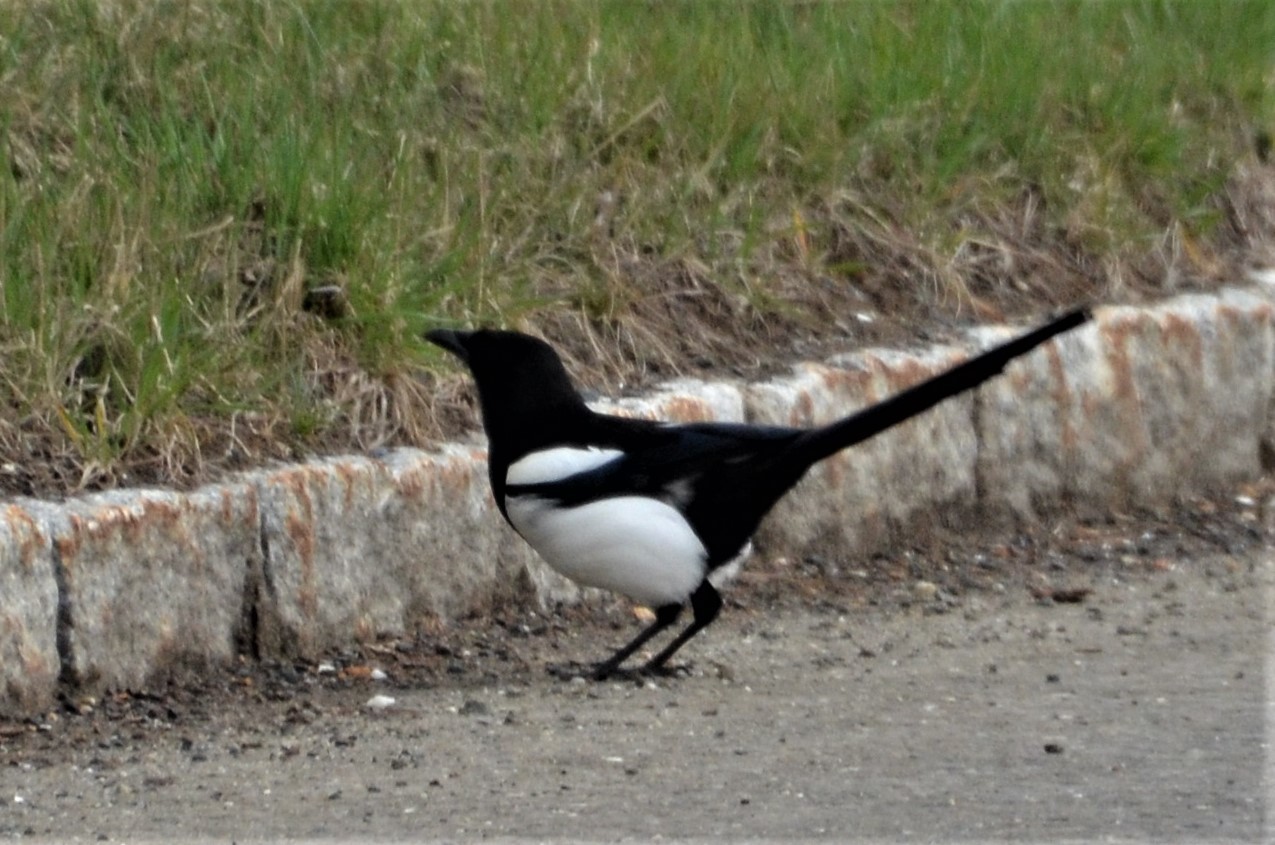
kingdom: Animalia
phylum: Chordata
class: Aves
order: Passeriformes
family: Corvidae
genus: Pica
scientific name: Pica pica
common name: Eurasian magpie
